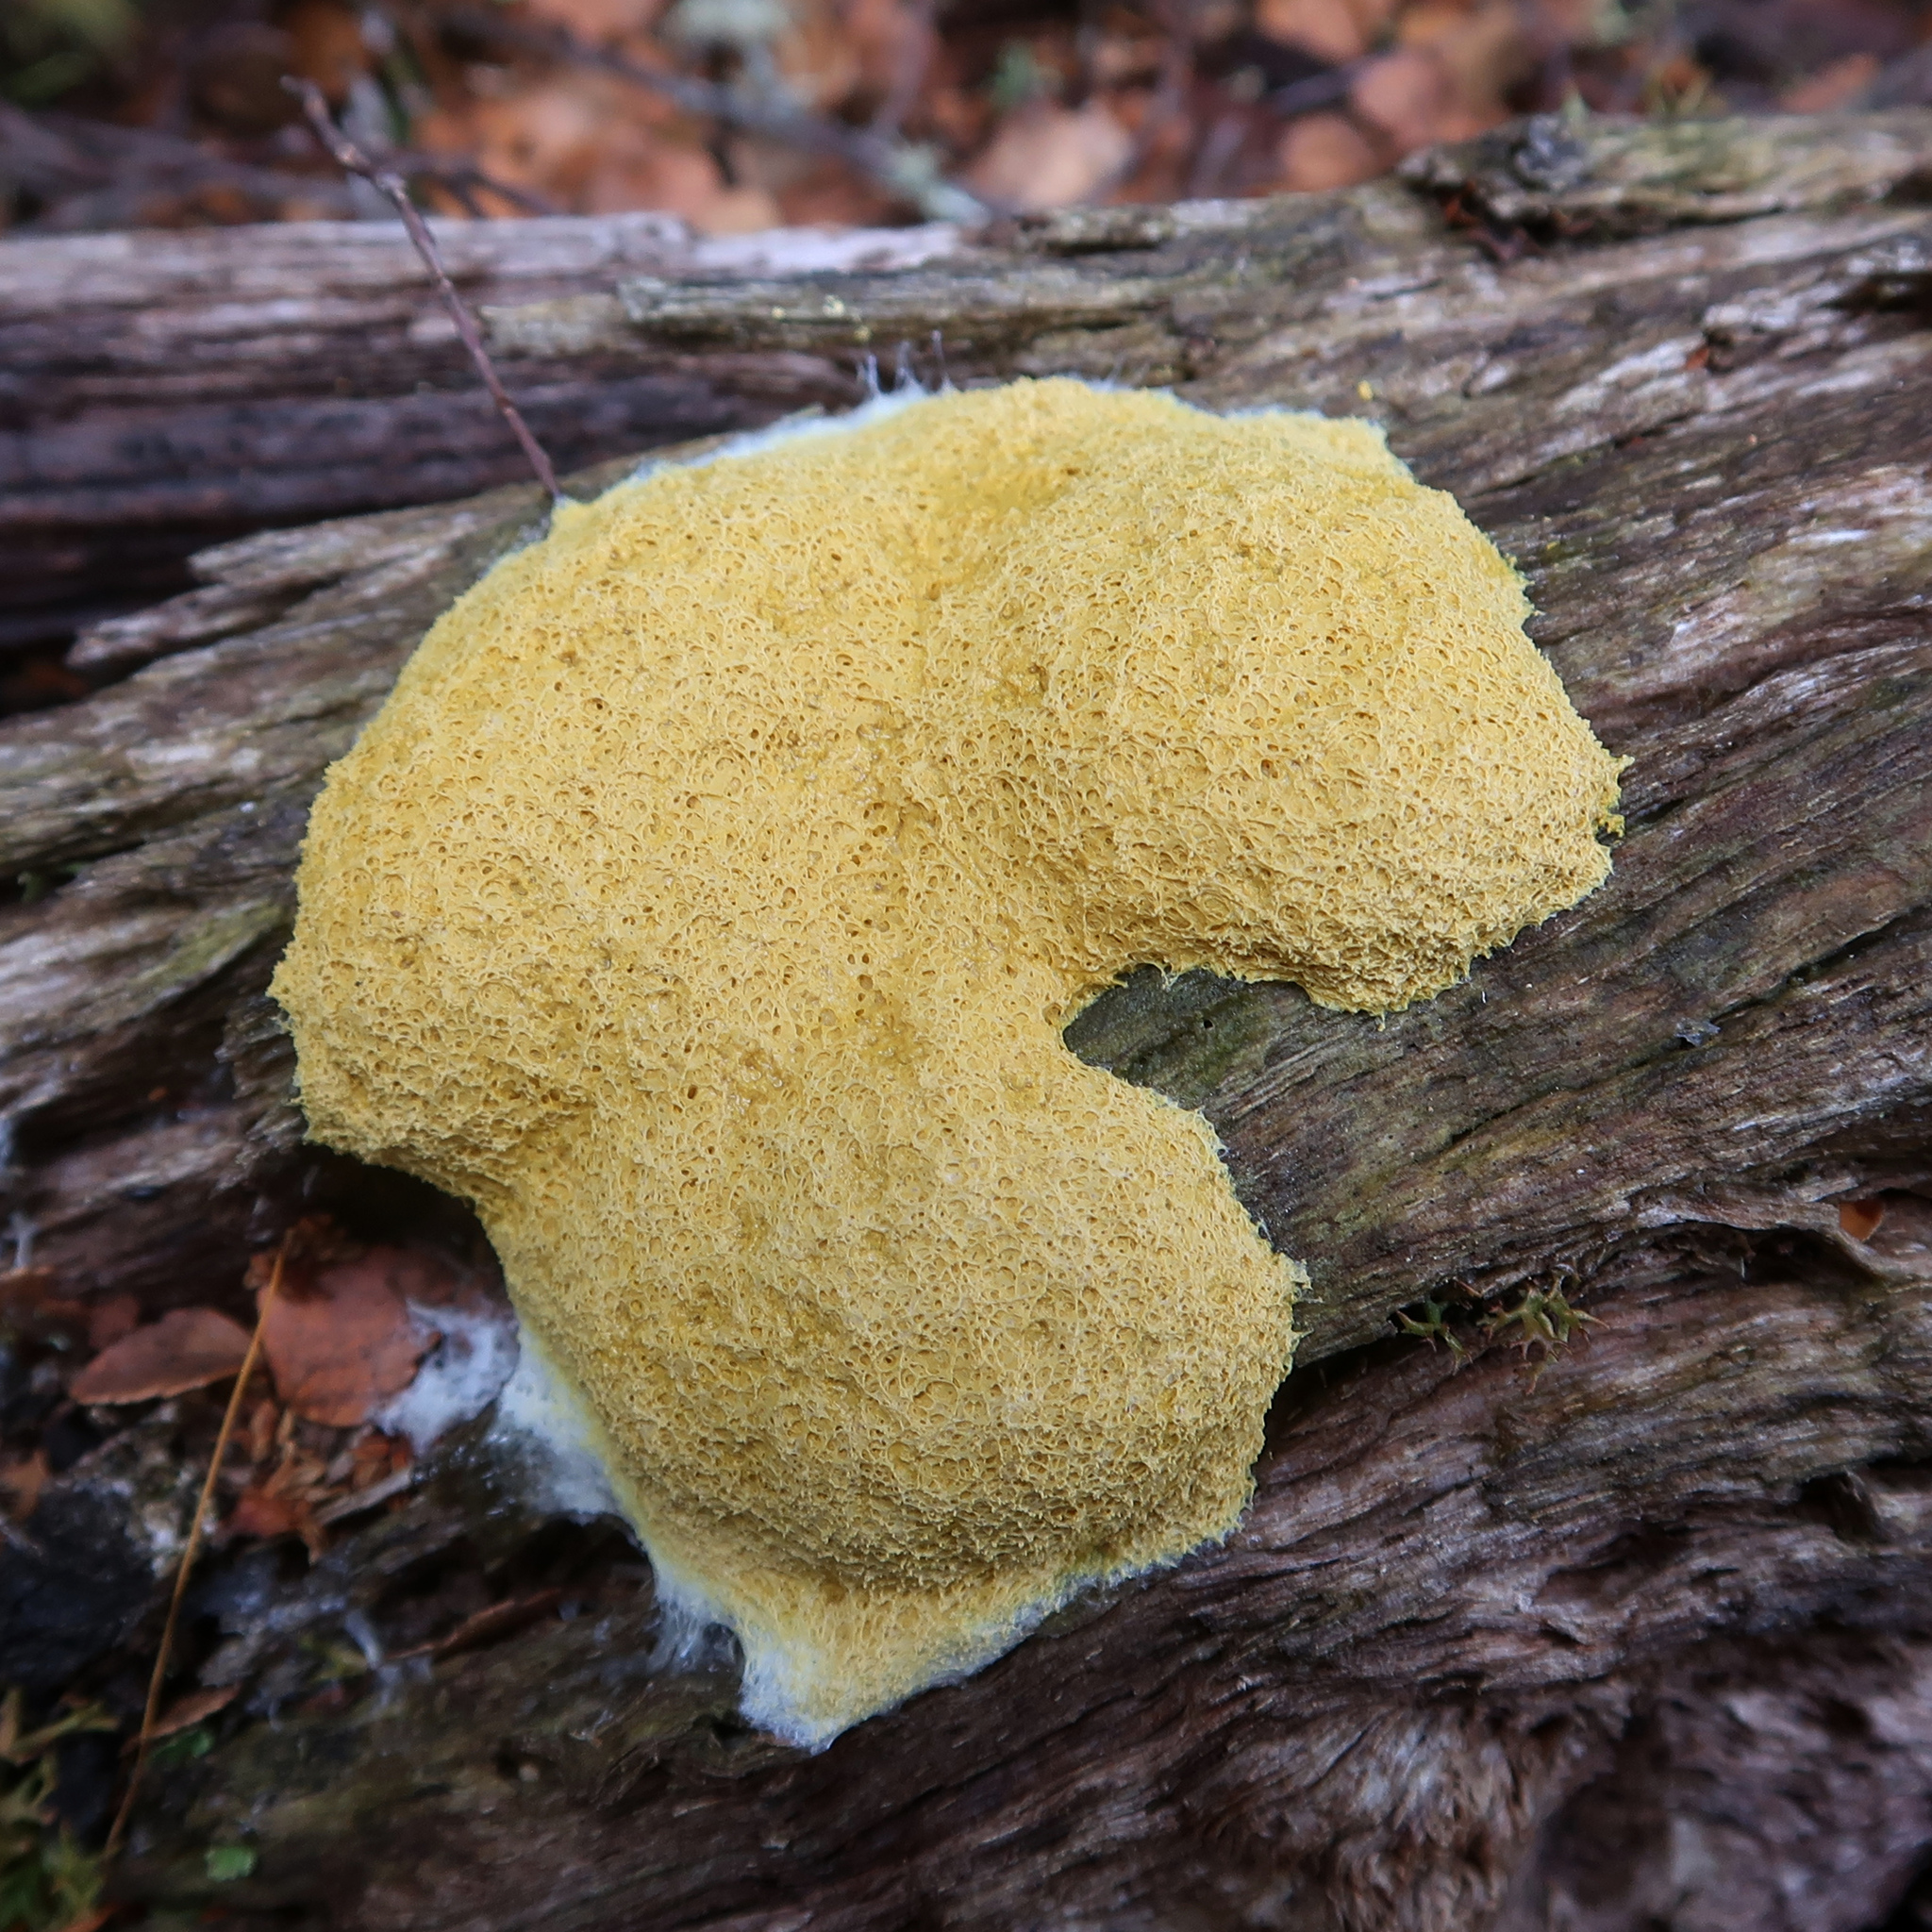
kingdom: Protozoa
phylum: Mycetozoa
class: Myxomycetes
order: Physarales
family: Physaraceae
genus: Fuligo
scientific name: Fuligo septica
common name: Dog vomit slime mold
